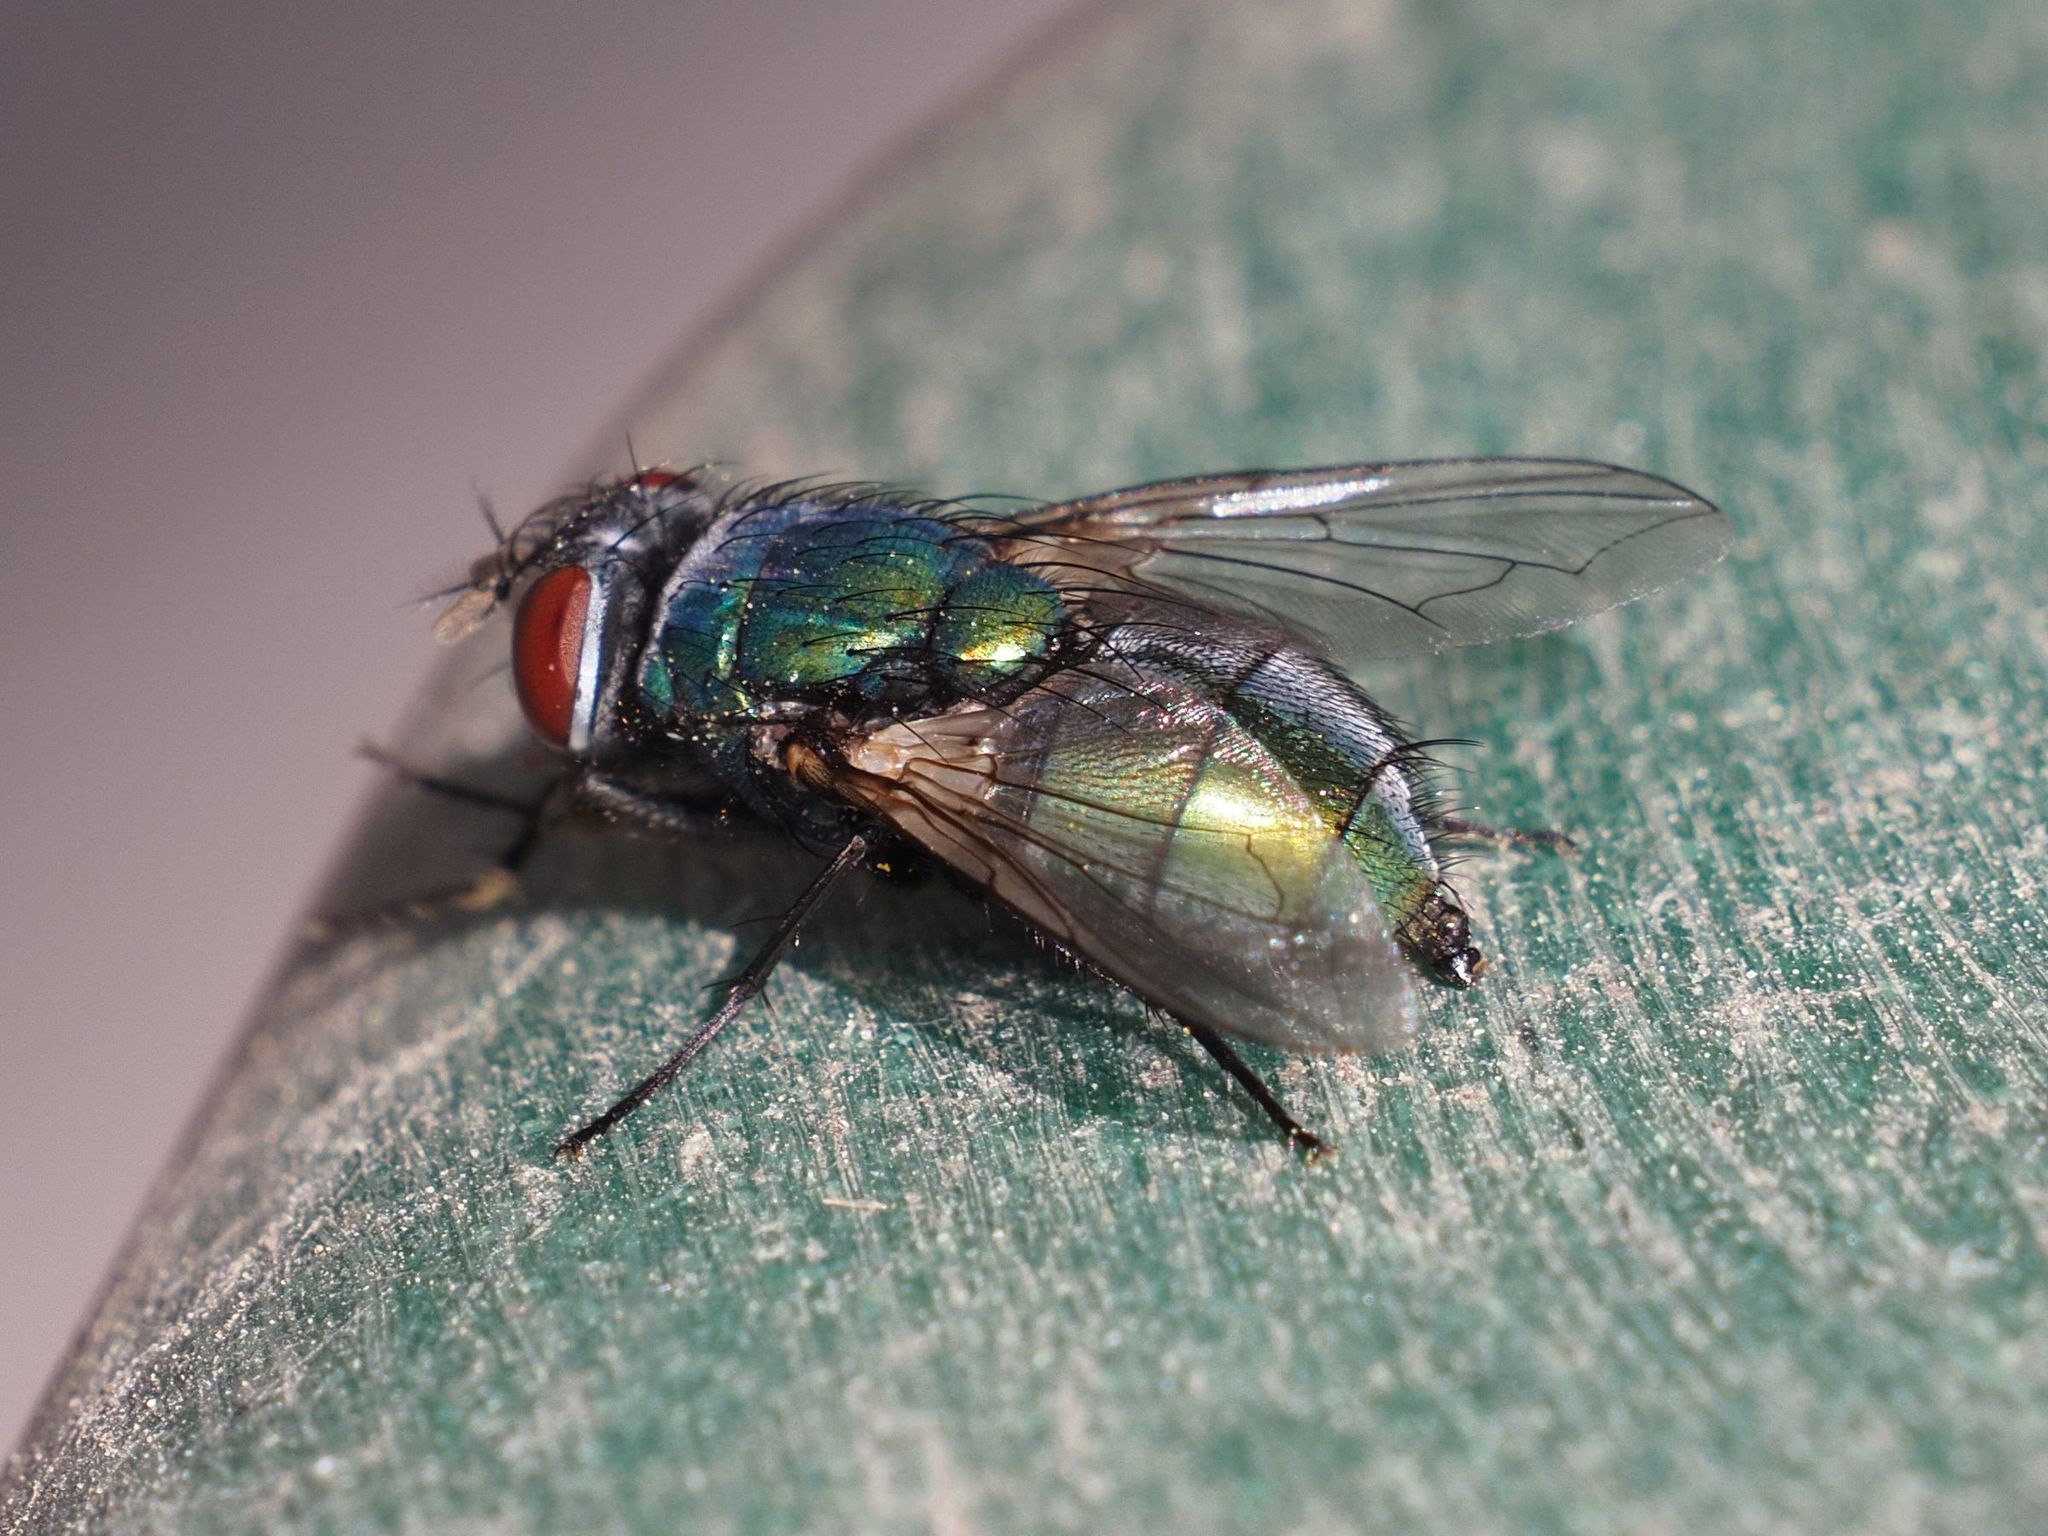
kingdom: Animalia
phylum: Arthropoda
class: Insecta
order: Diptera
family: Calliphoridae
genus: Lucilia
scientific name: Lucilia sericata
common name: Blow fly
